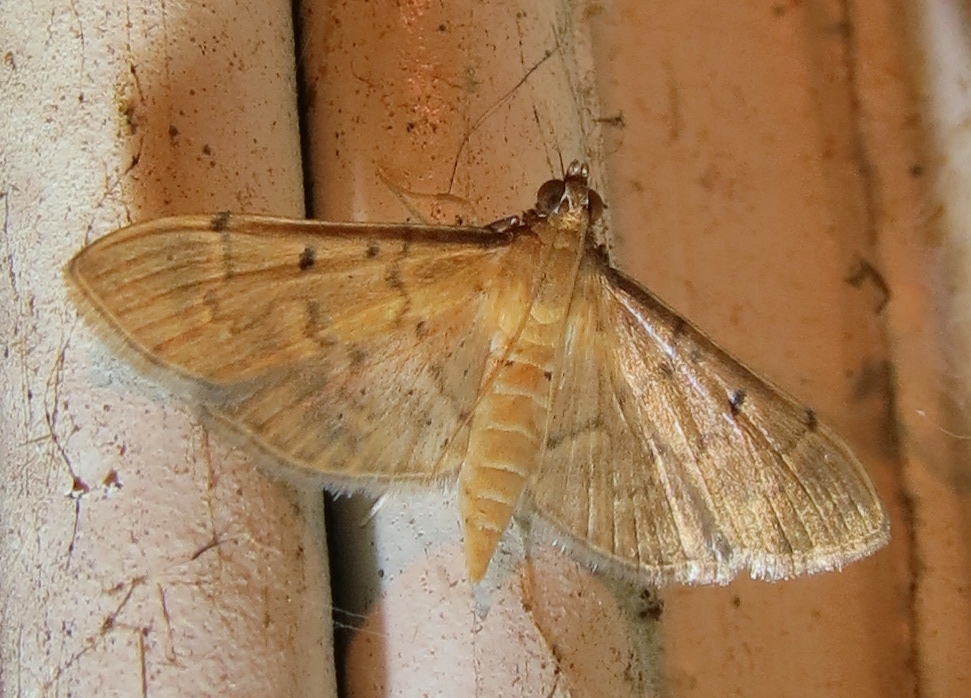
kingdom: Animalia
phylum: Arthropoda
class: Insecta
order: Lepidoptera
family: Crambidae
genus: Herpetogramma
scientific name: Herpetogramma bipunctalis
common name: Southern beet webworm
